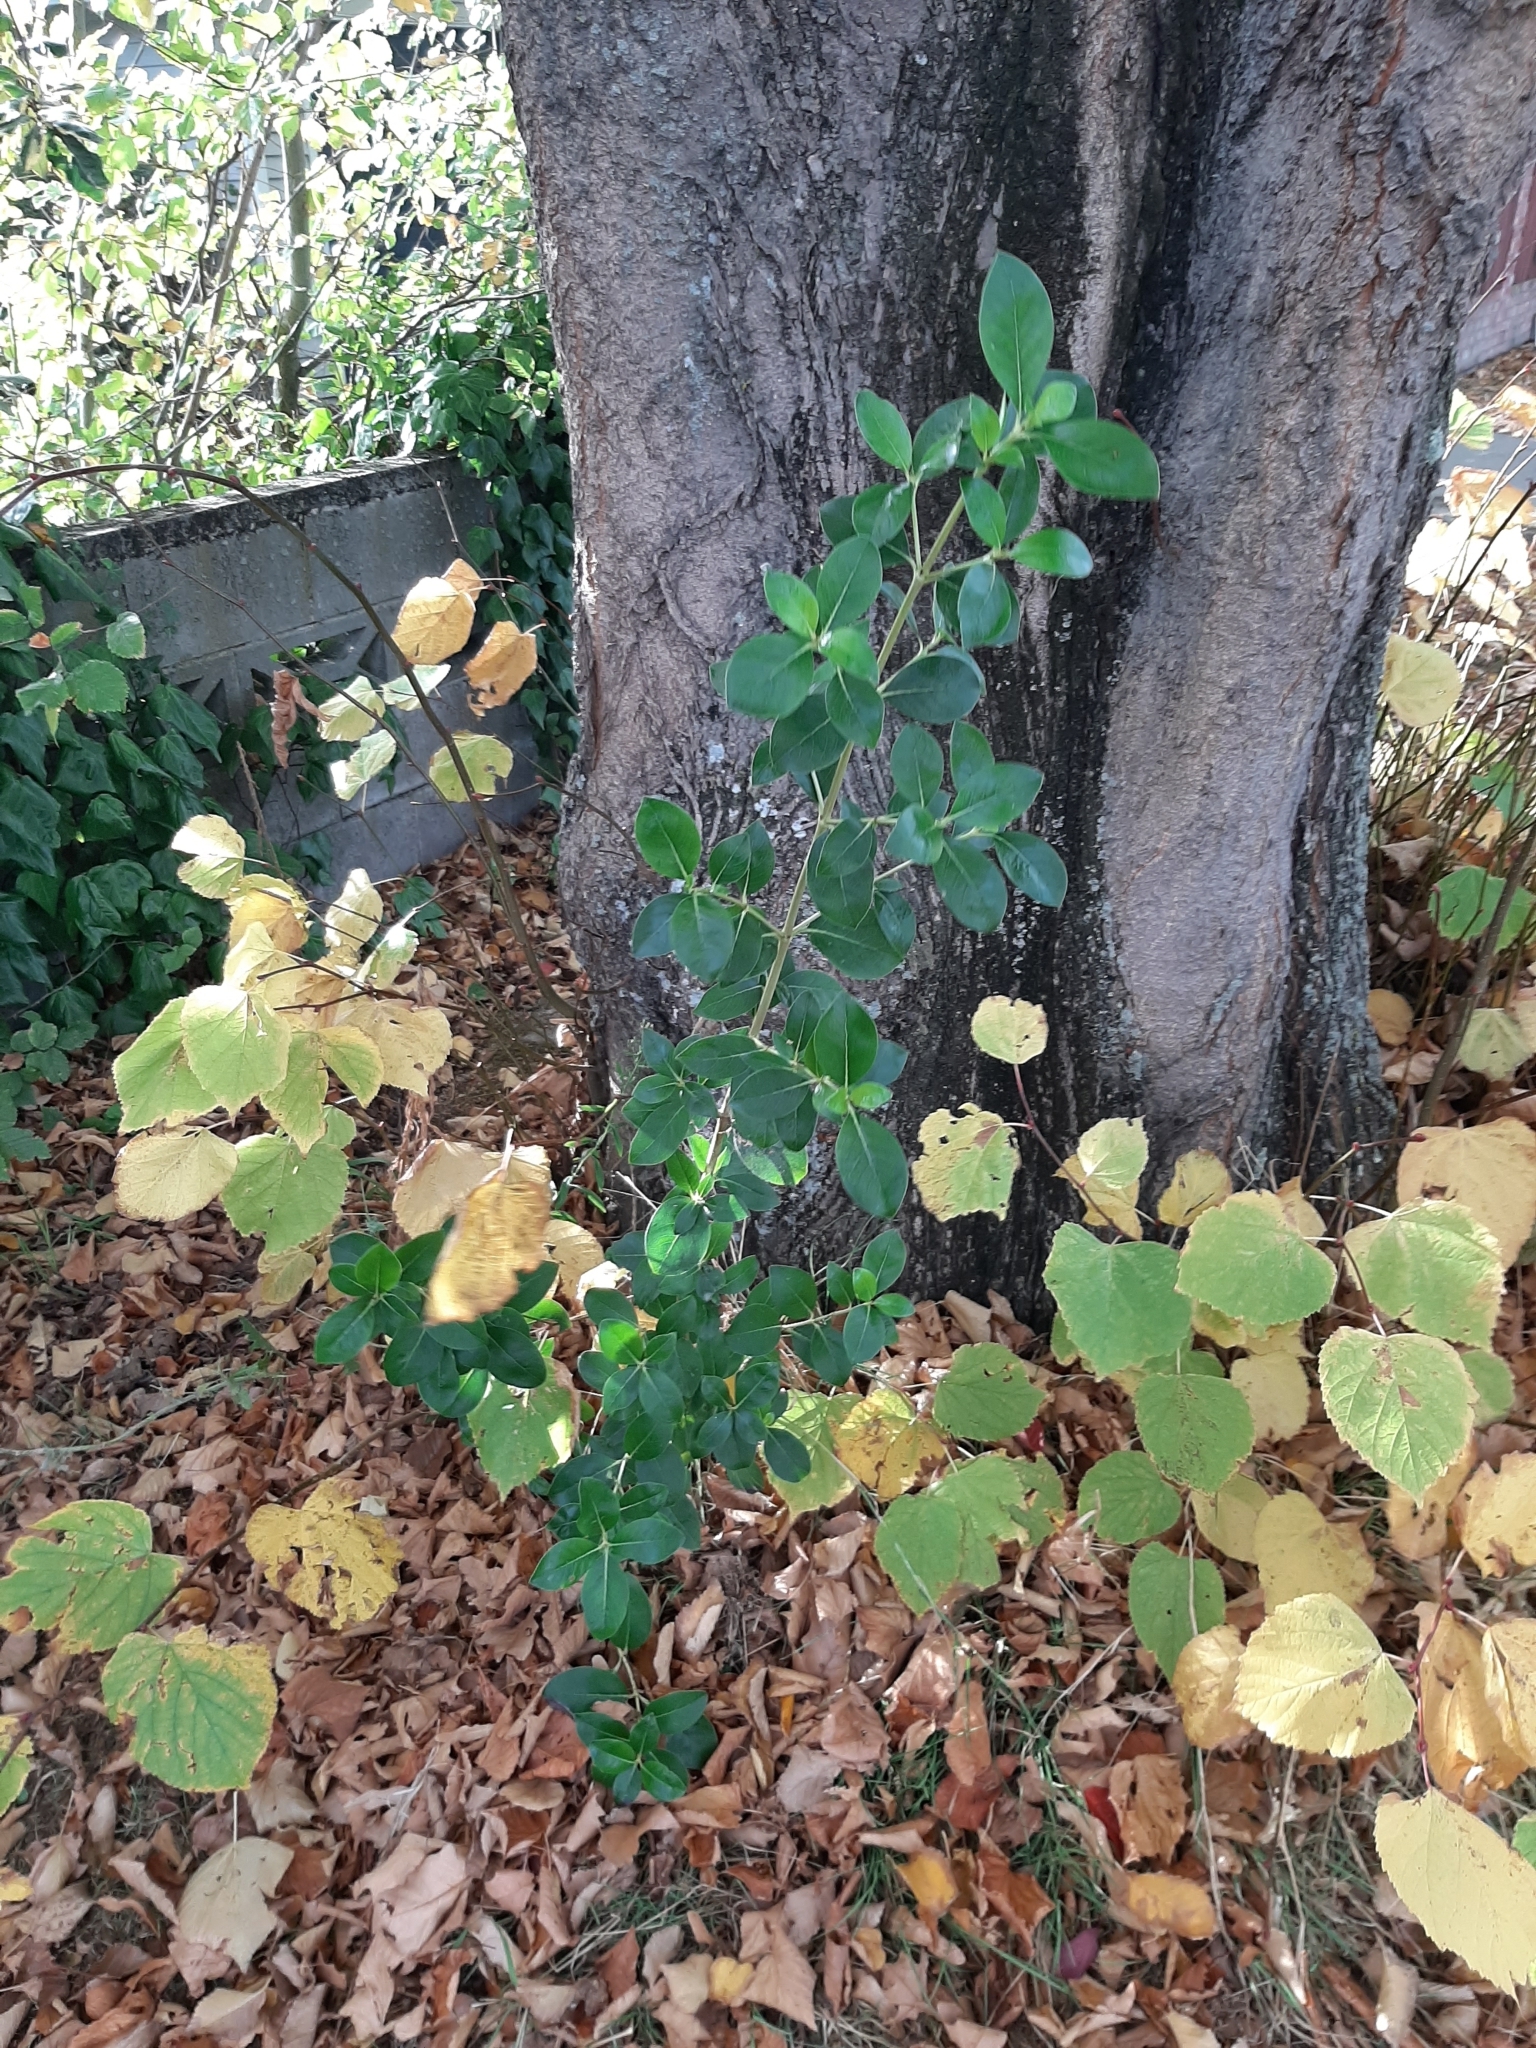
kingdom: Plantae
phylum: Tracheophyta
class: Magnoliopsida
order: Gentianales
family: Rubiaceae
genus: Coprosma
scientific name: Coprosma robusta
